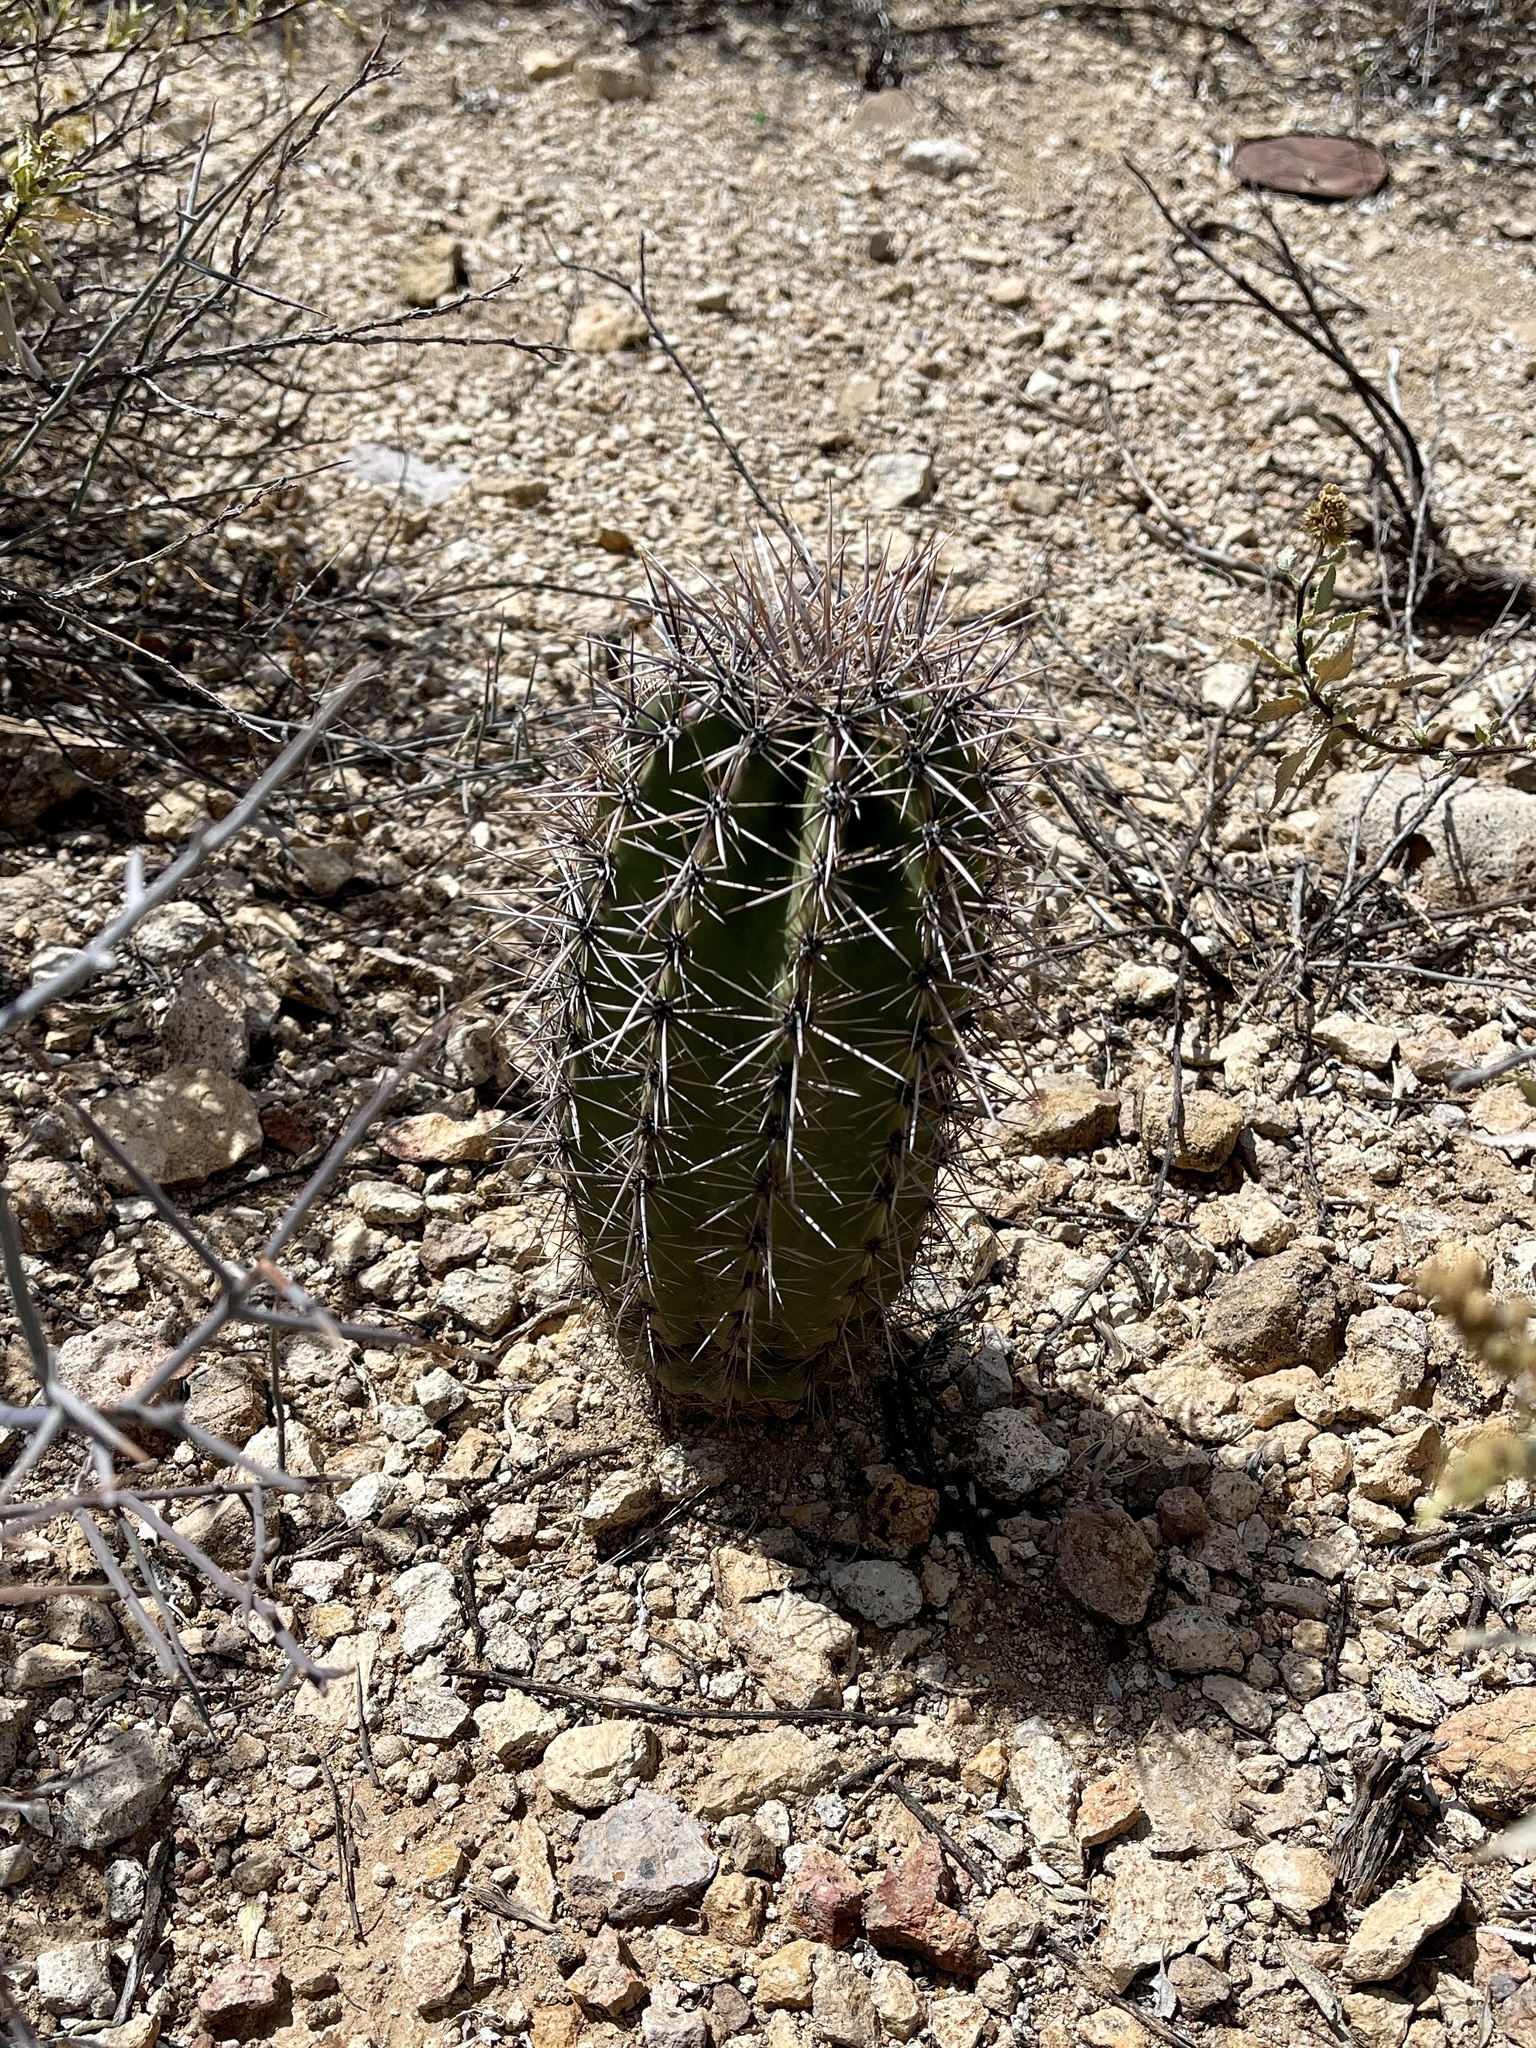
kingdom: Plantae
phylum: Tracheophyta
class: Magnoliopsida
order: Caryophyllales
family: Cactaceae
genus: Carnegiea
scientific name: Carnegiea gigantea
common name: Saguaro
